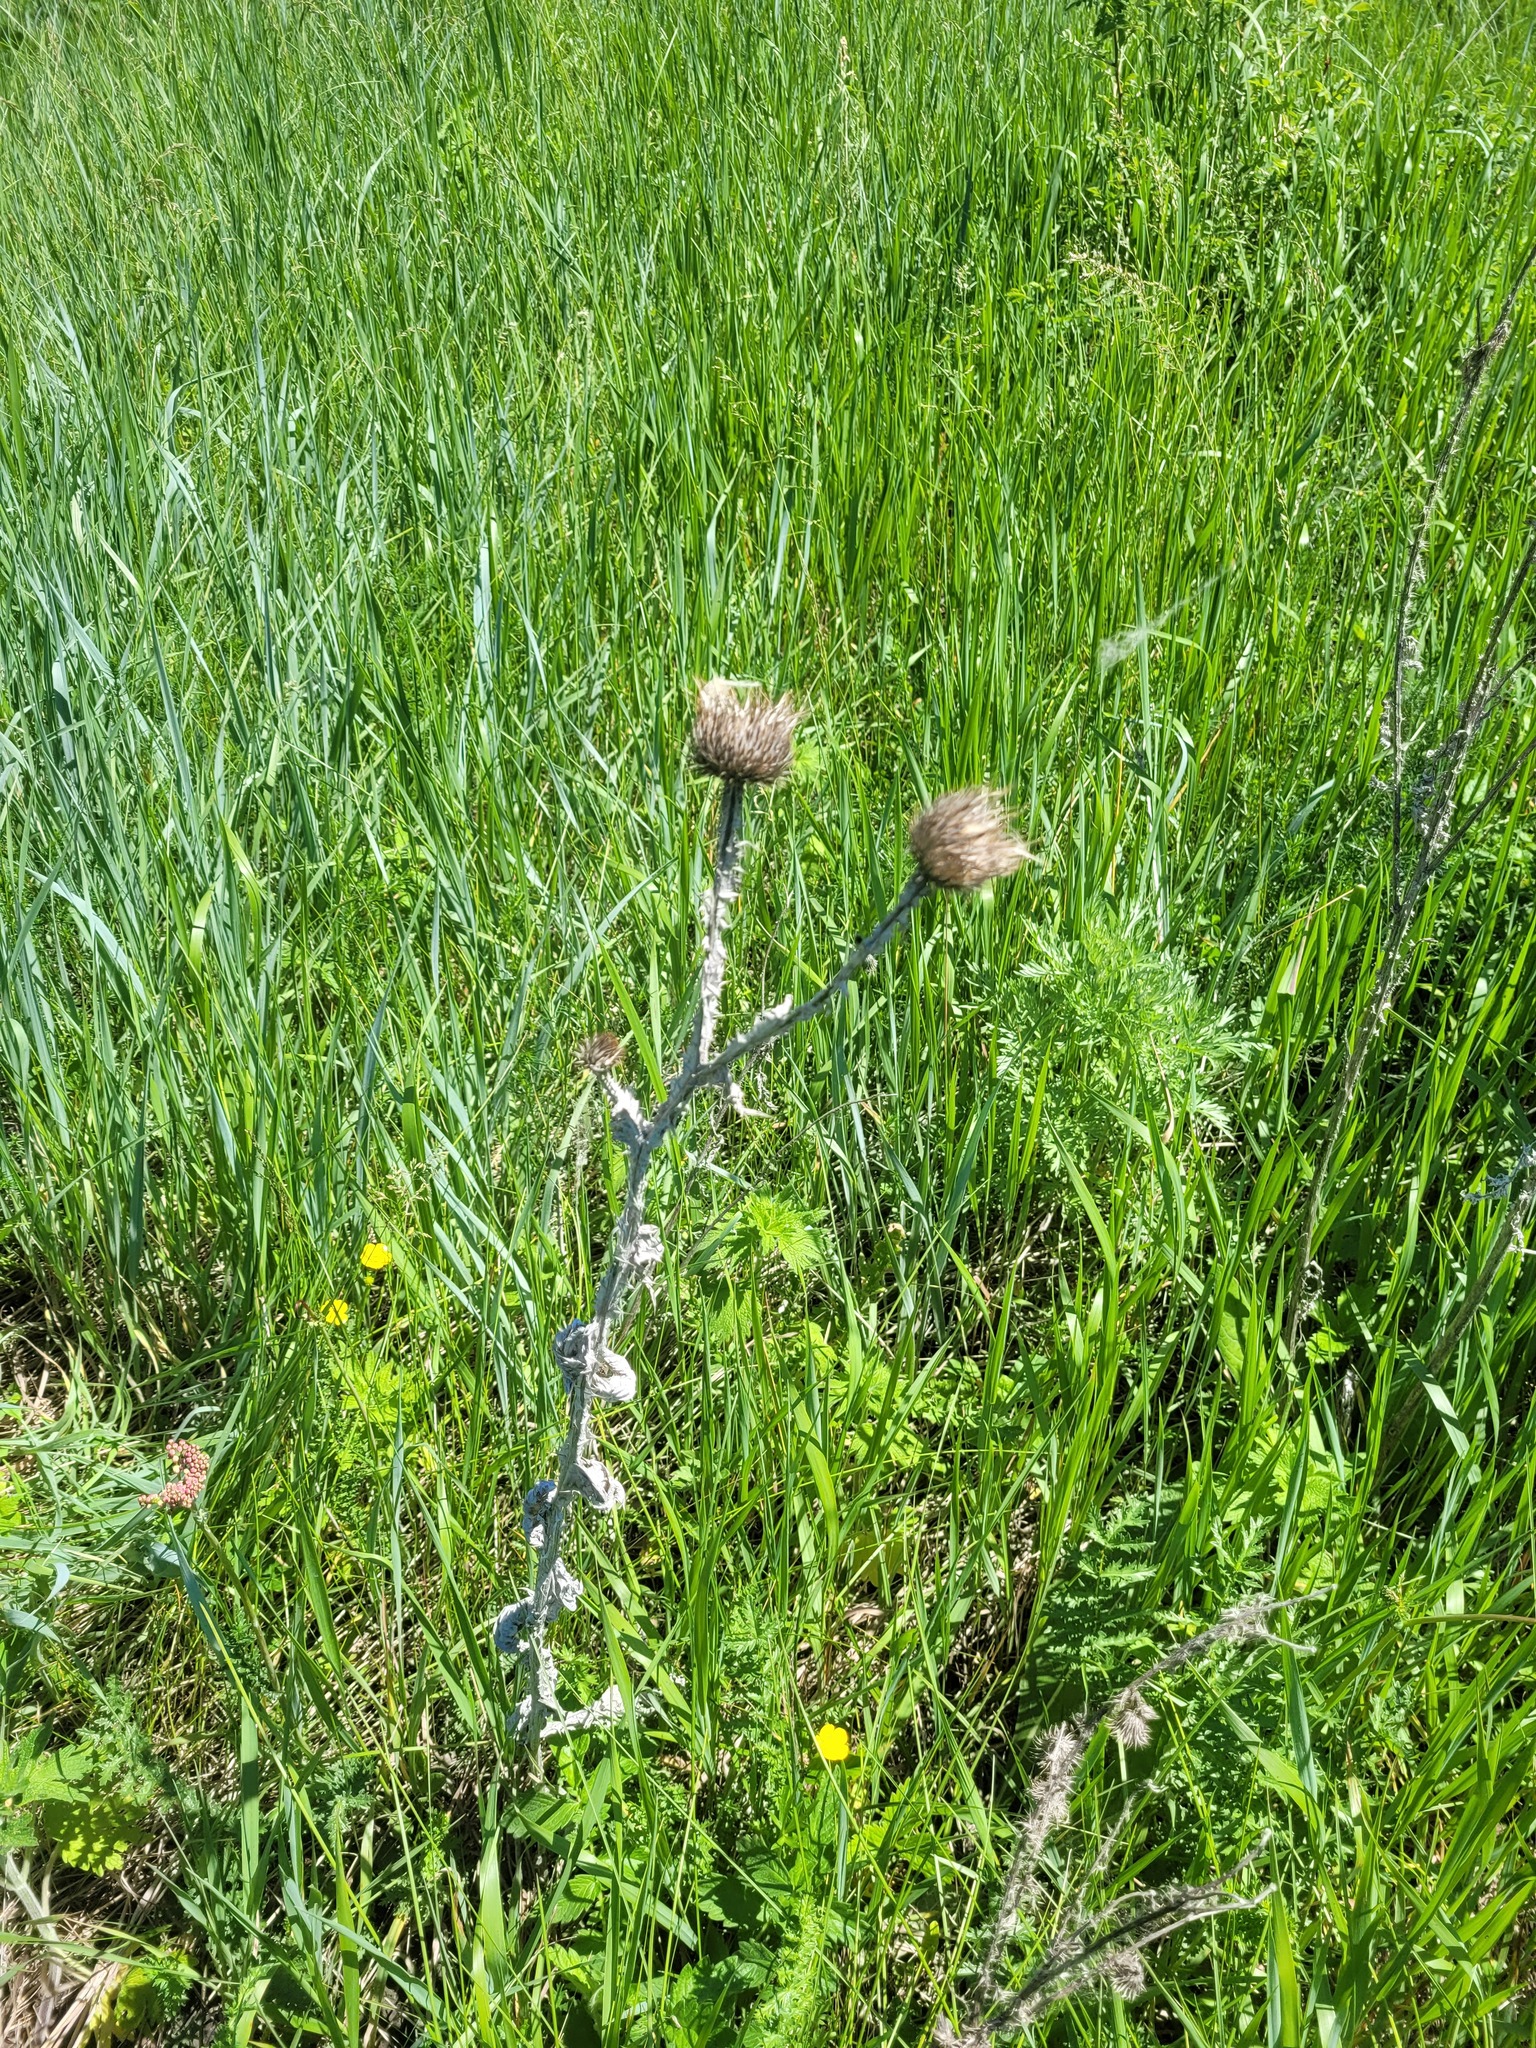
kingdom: Plantae
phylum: Tracheophyta
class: Magnoliopsida
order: Asterales
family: Asteraceae
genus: Onopordum
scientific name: Onopordum acanthium
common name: Scotch thistle
